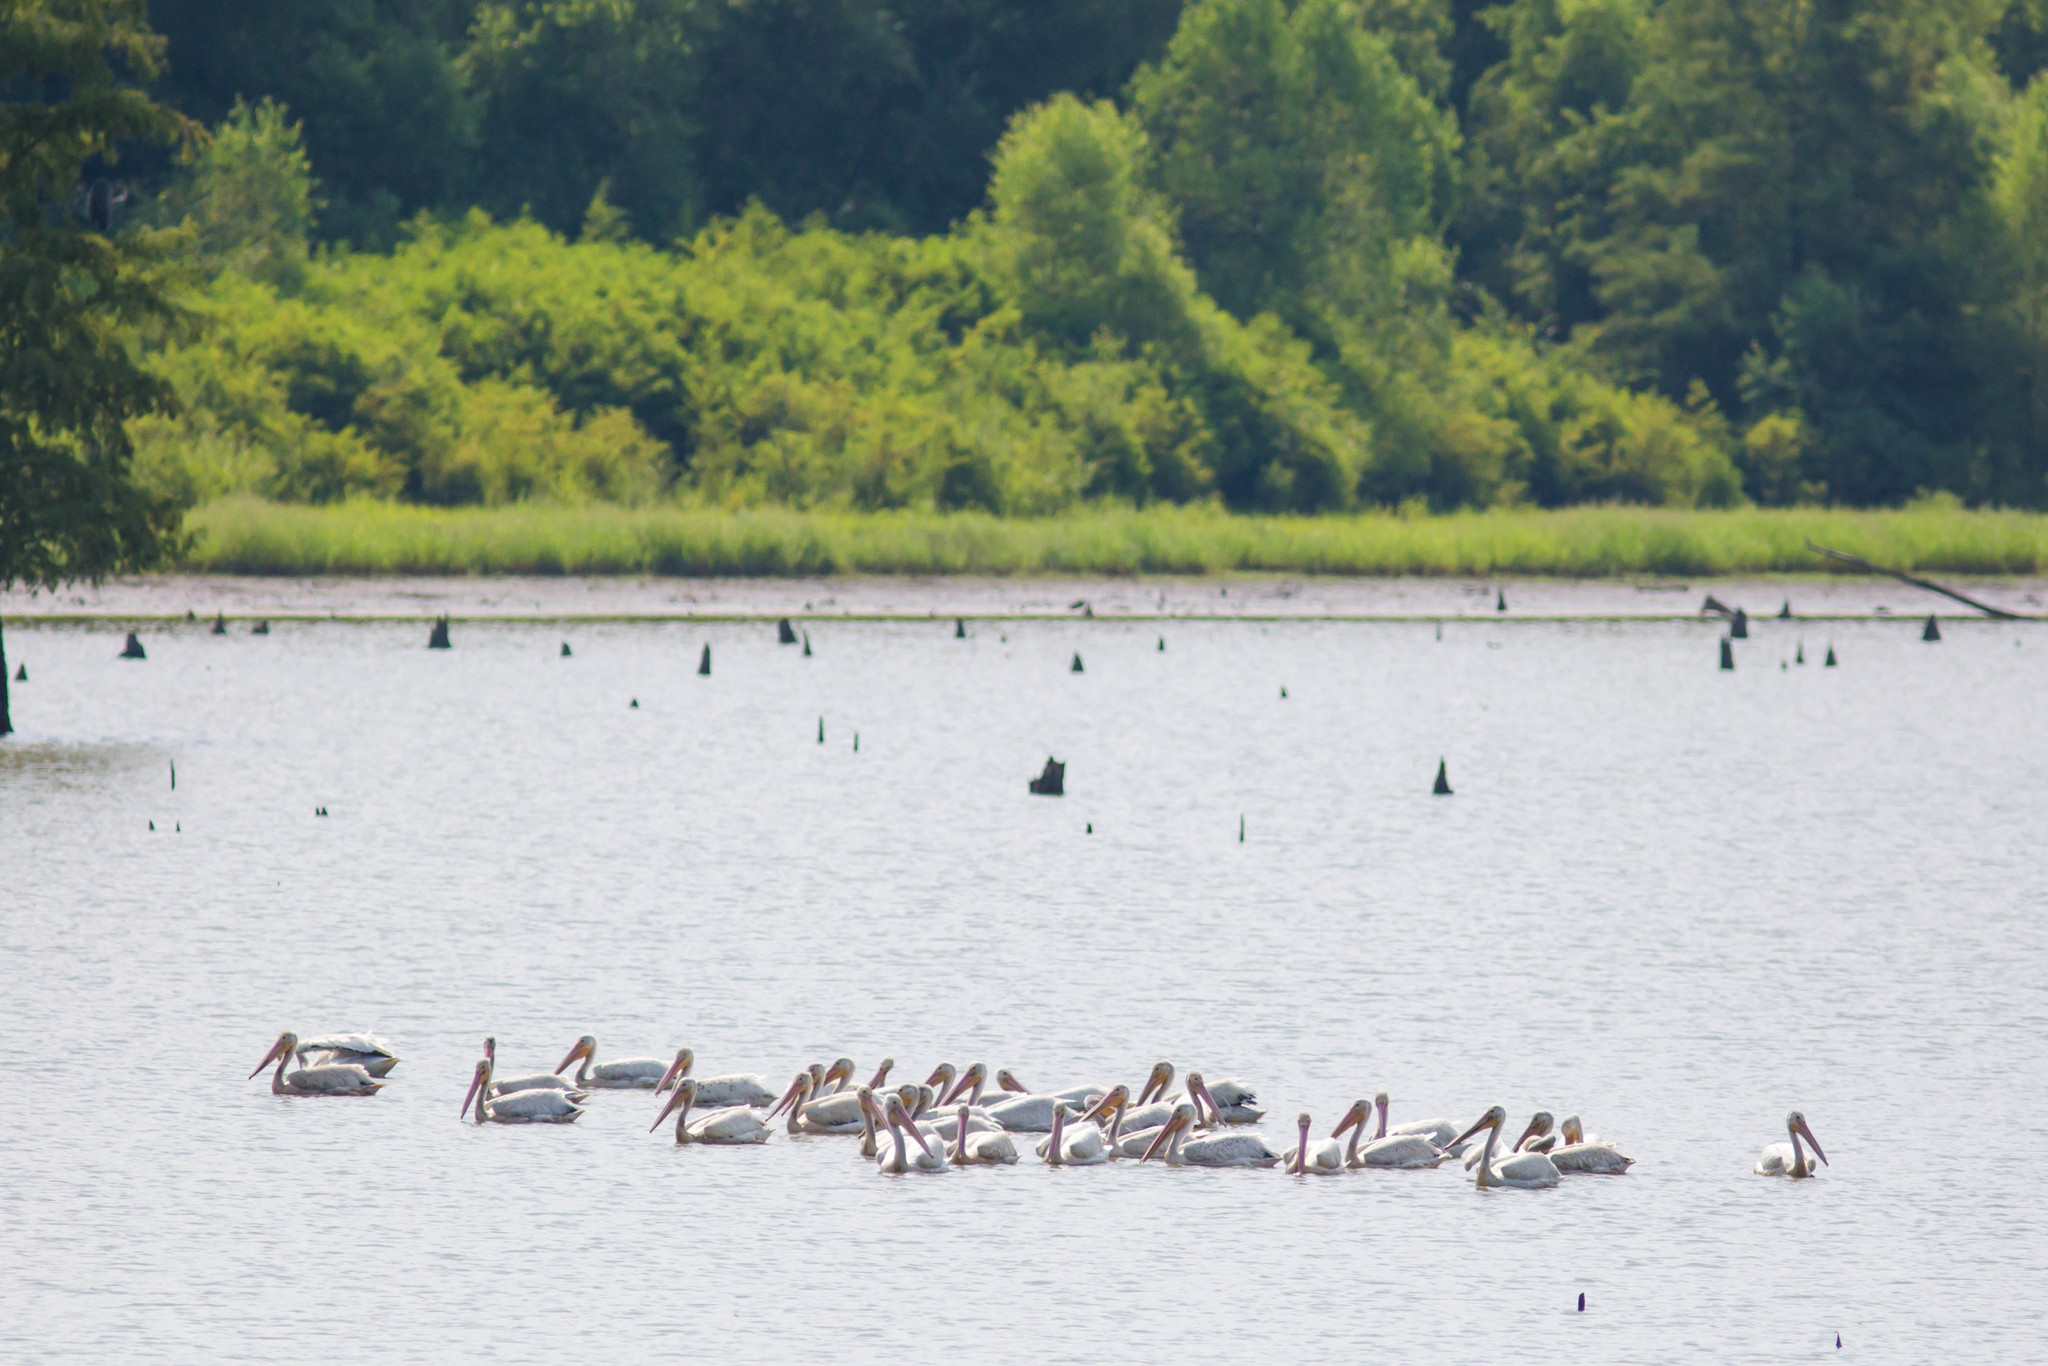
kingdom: Animalia
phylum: Chordata
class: Aves
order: Pelecaniformes
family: Pelecanidae
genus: Pelecanus
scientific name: Pelecanus erythrorhynchos
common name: American white pelican
